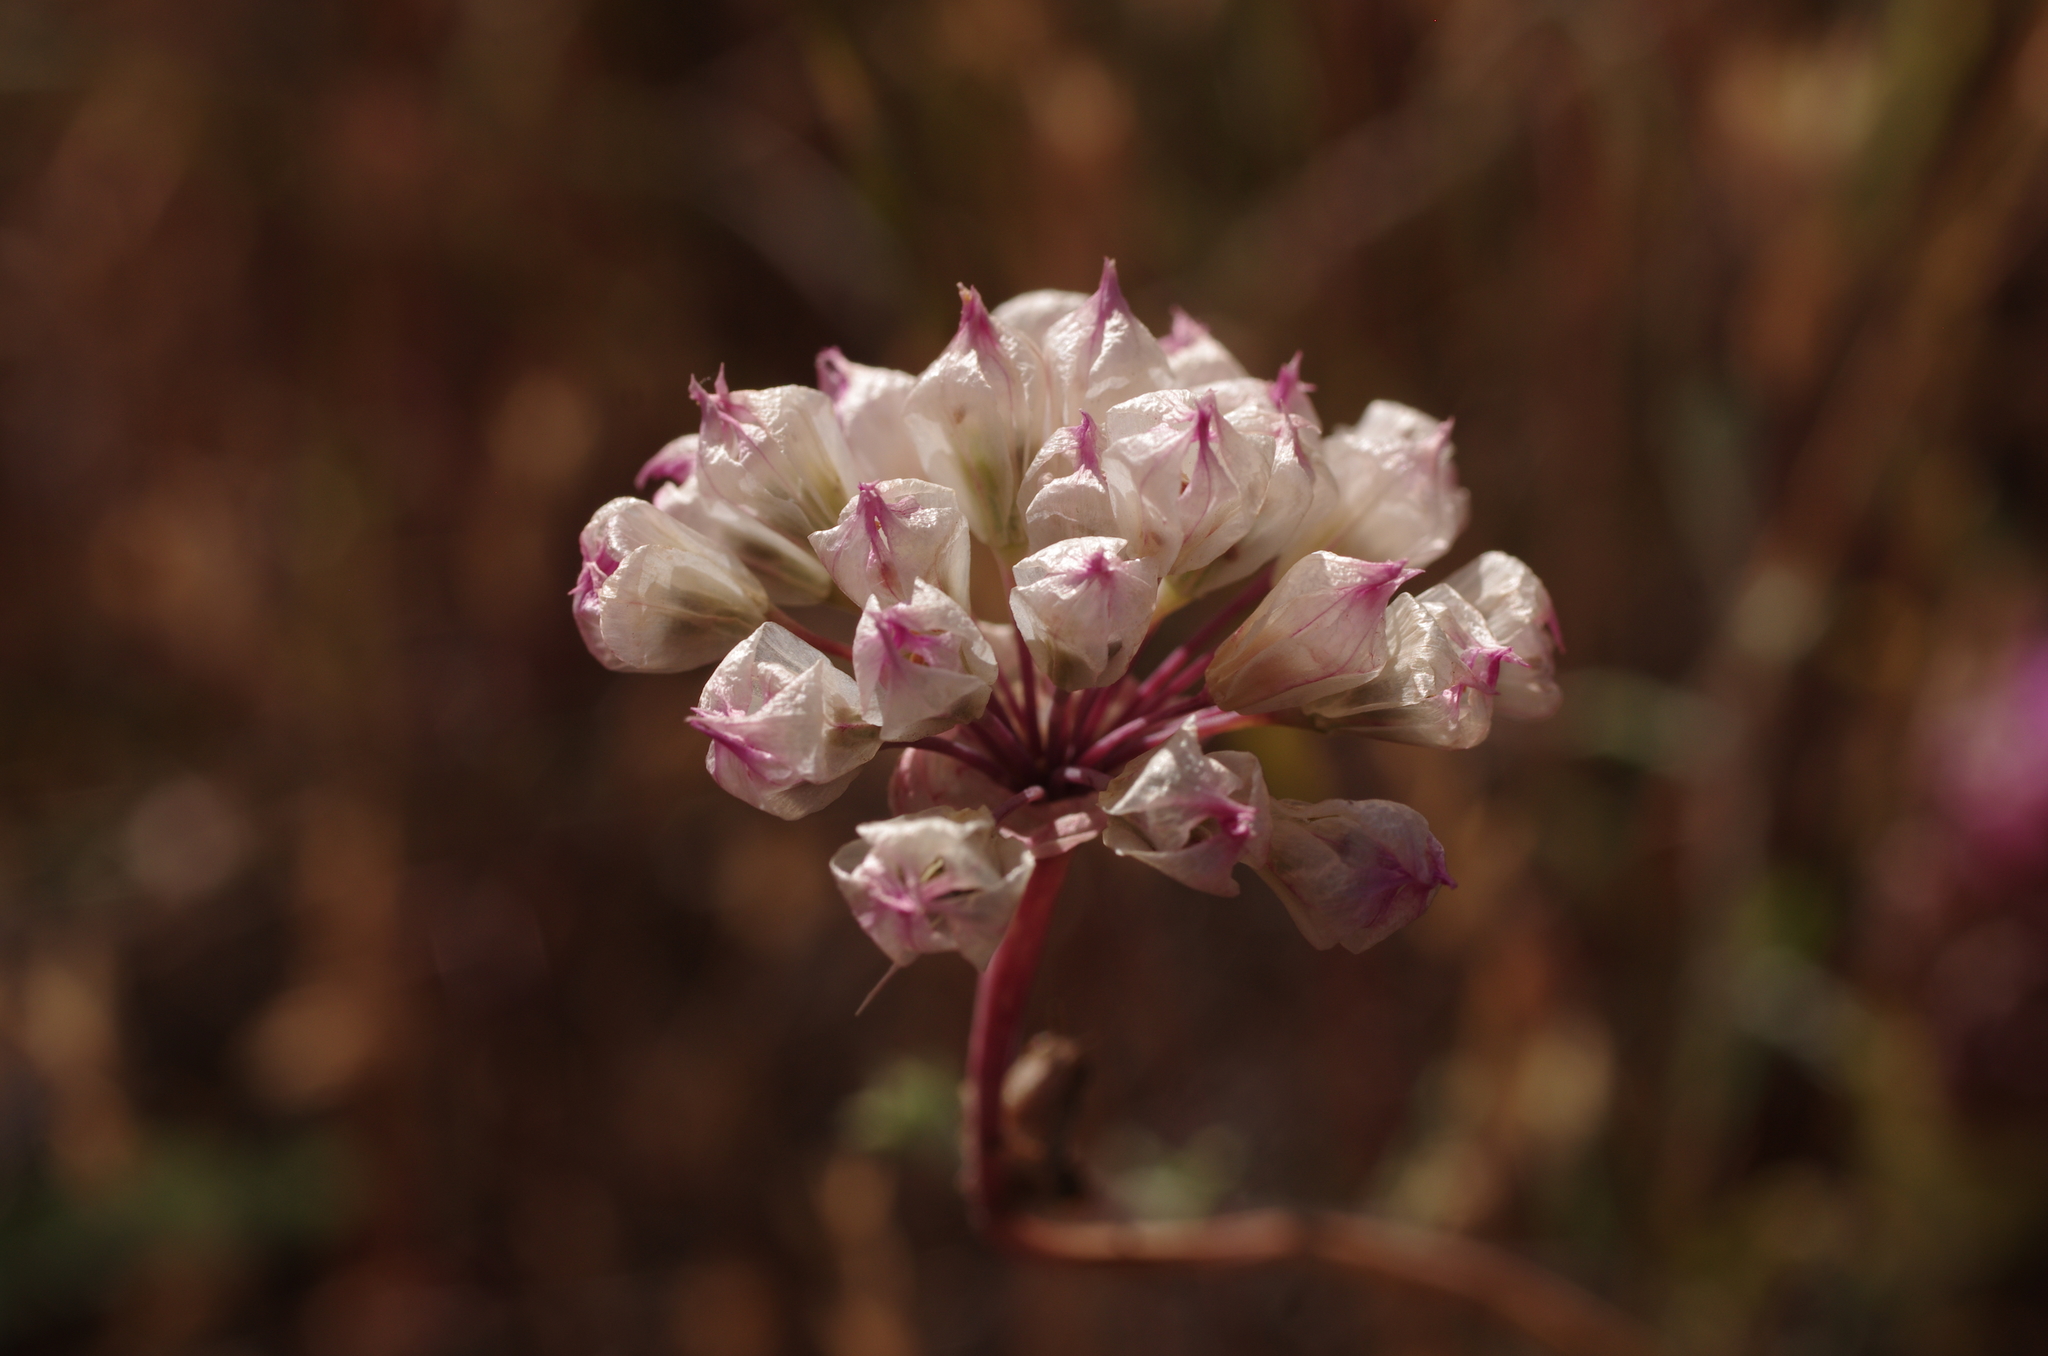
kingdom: Plantae
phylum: Tracheophyta
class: Liliopsida
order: Asparagales
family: Amaryllidaceae
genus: Allium
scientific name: Allium serra
